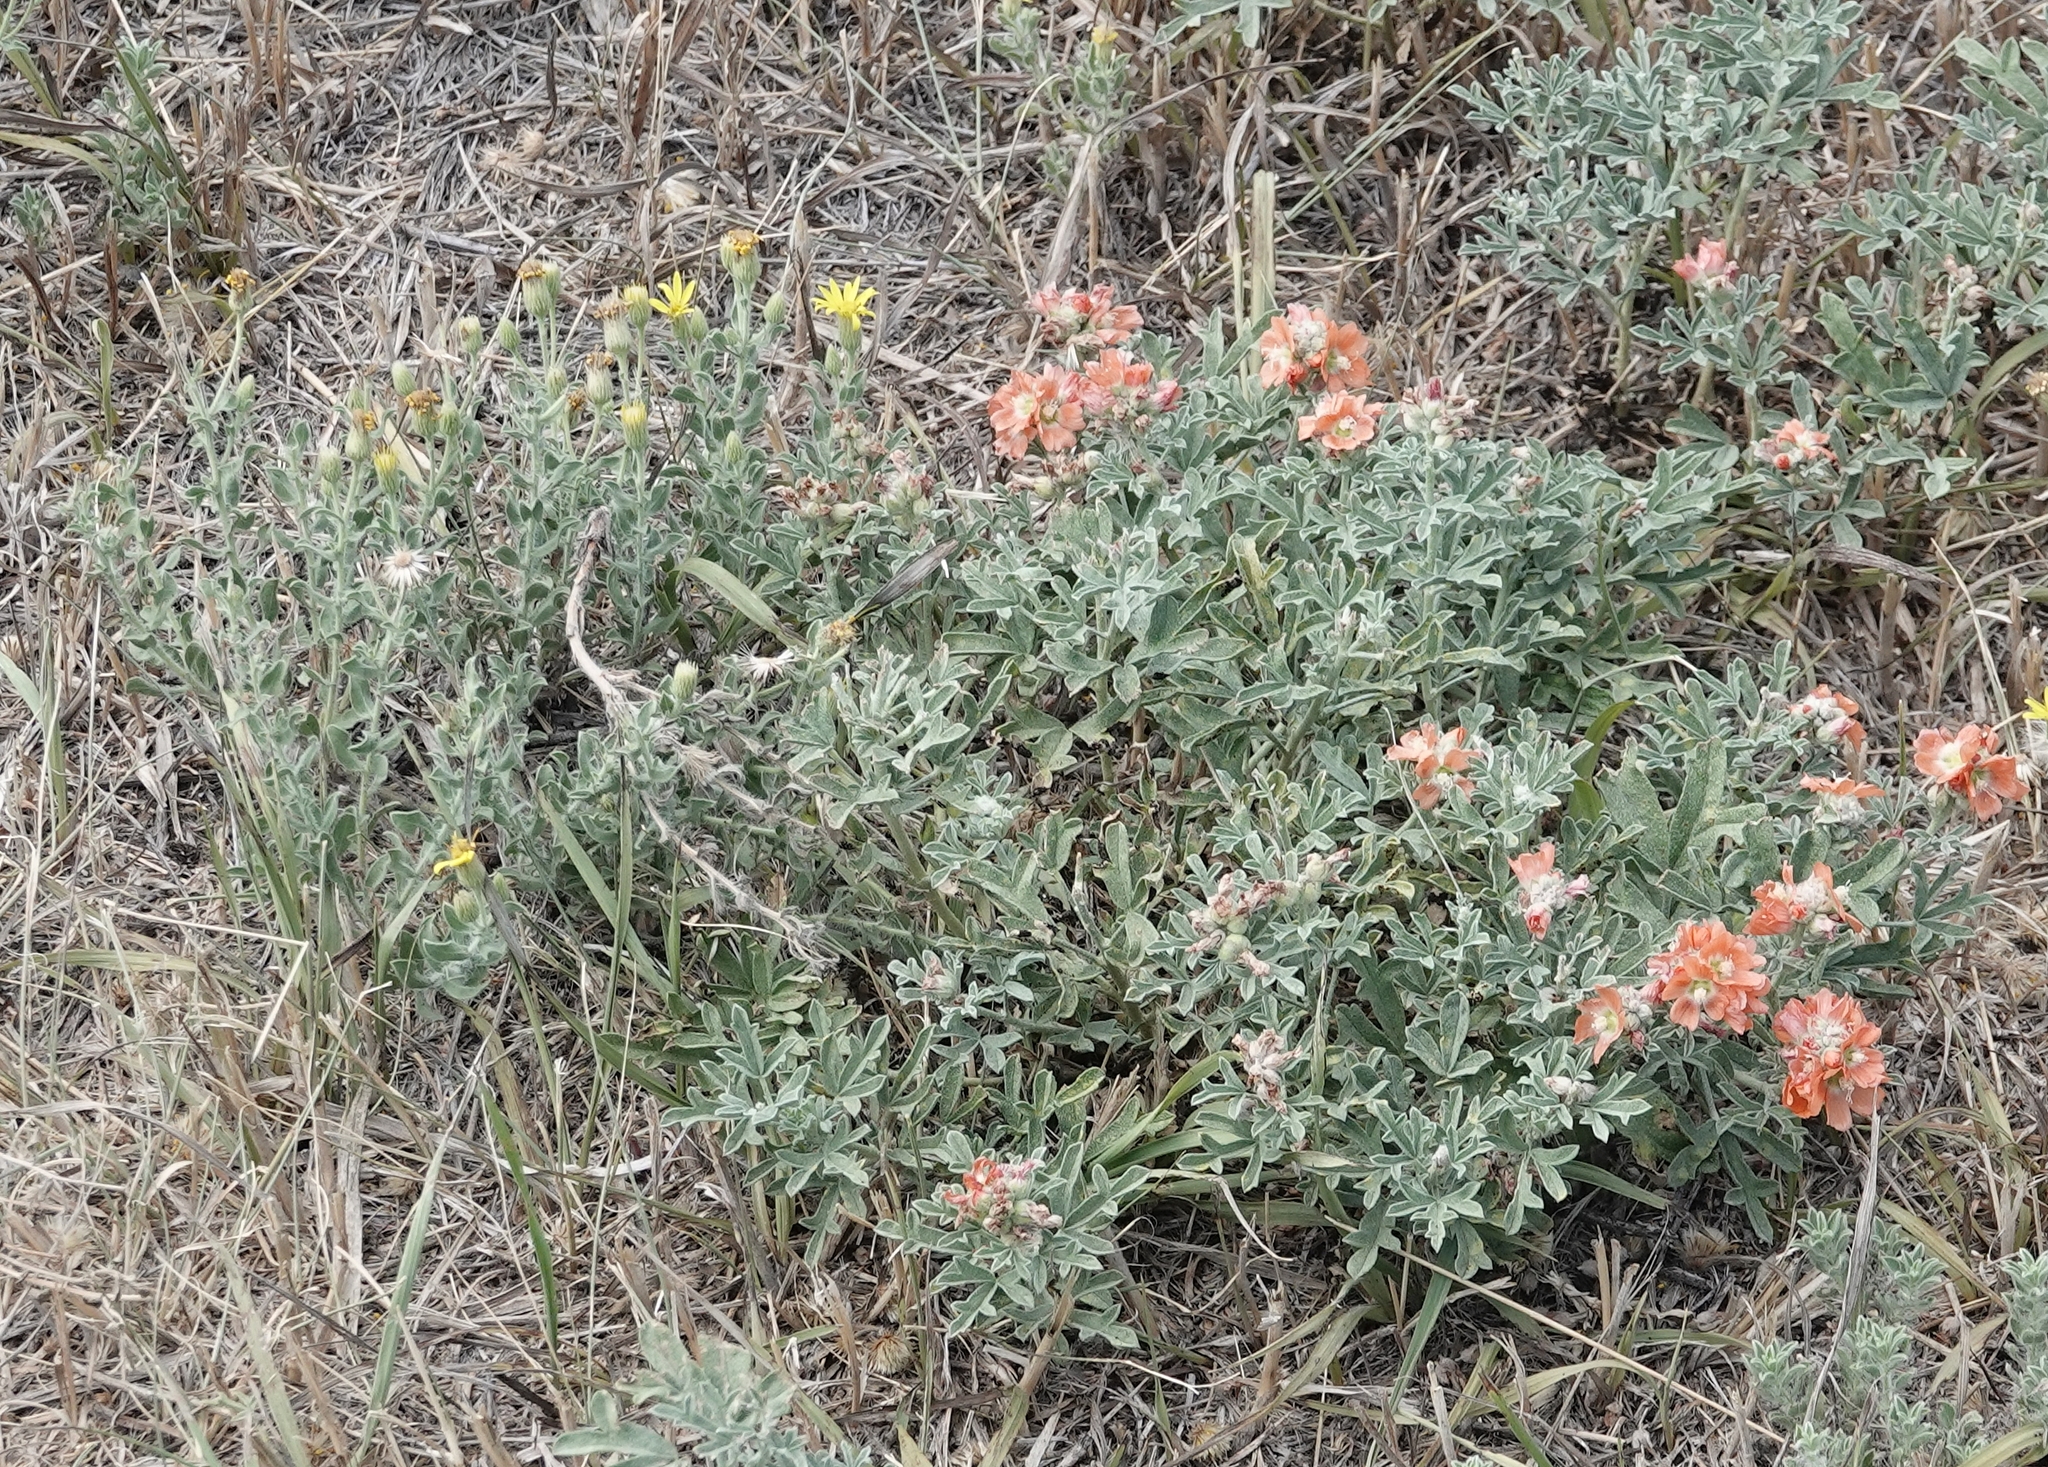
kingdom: Plantae
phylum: Tracheophyta
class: Magnoliopsida
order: Malvales
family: Malvaceae
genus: Sphaeralcea
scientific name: Sphaeralcea coccinea
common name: Moss-rose
